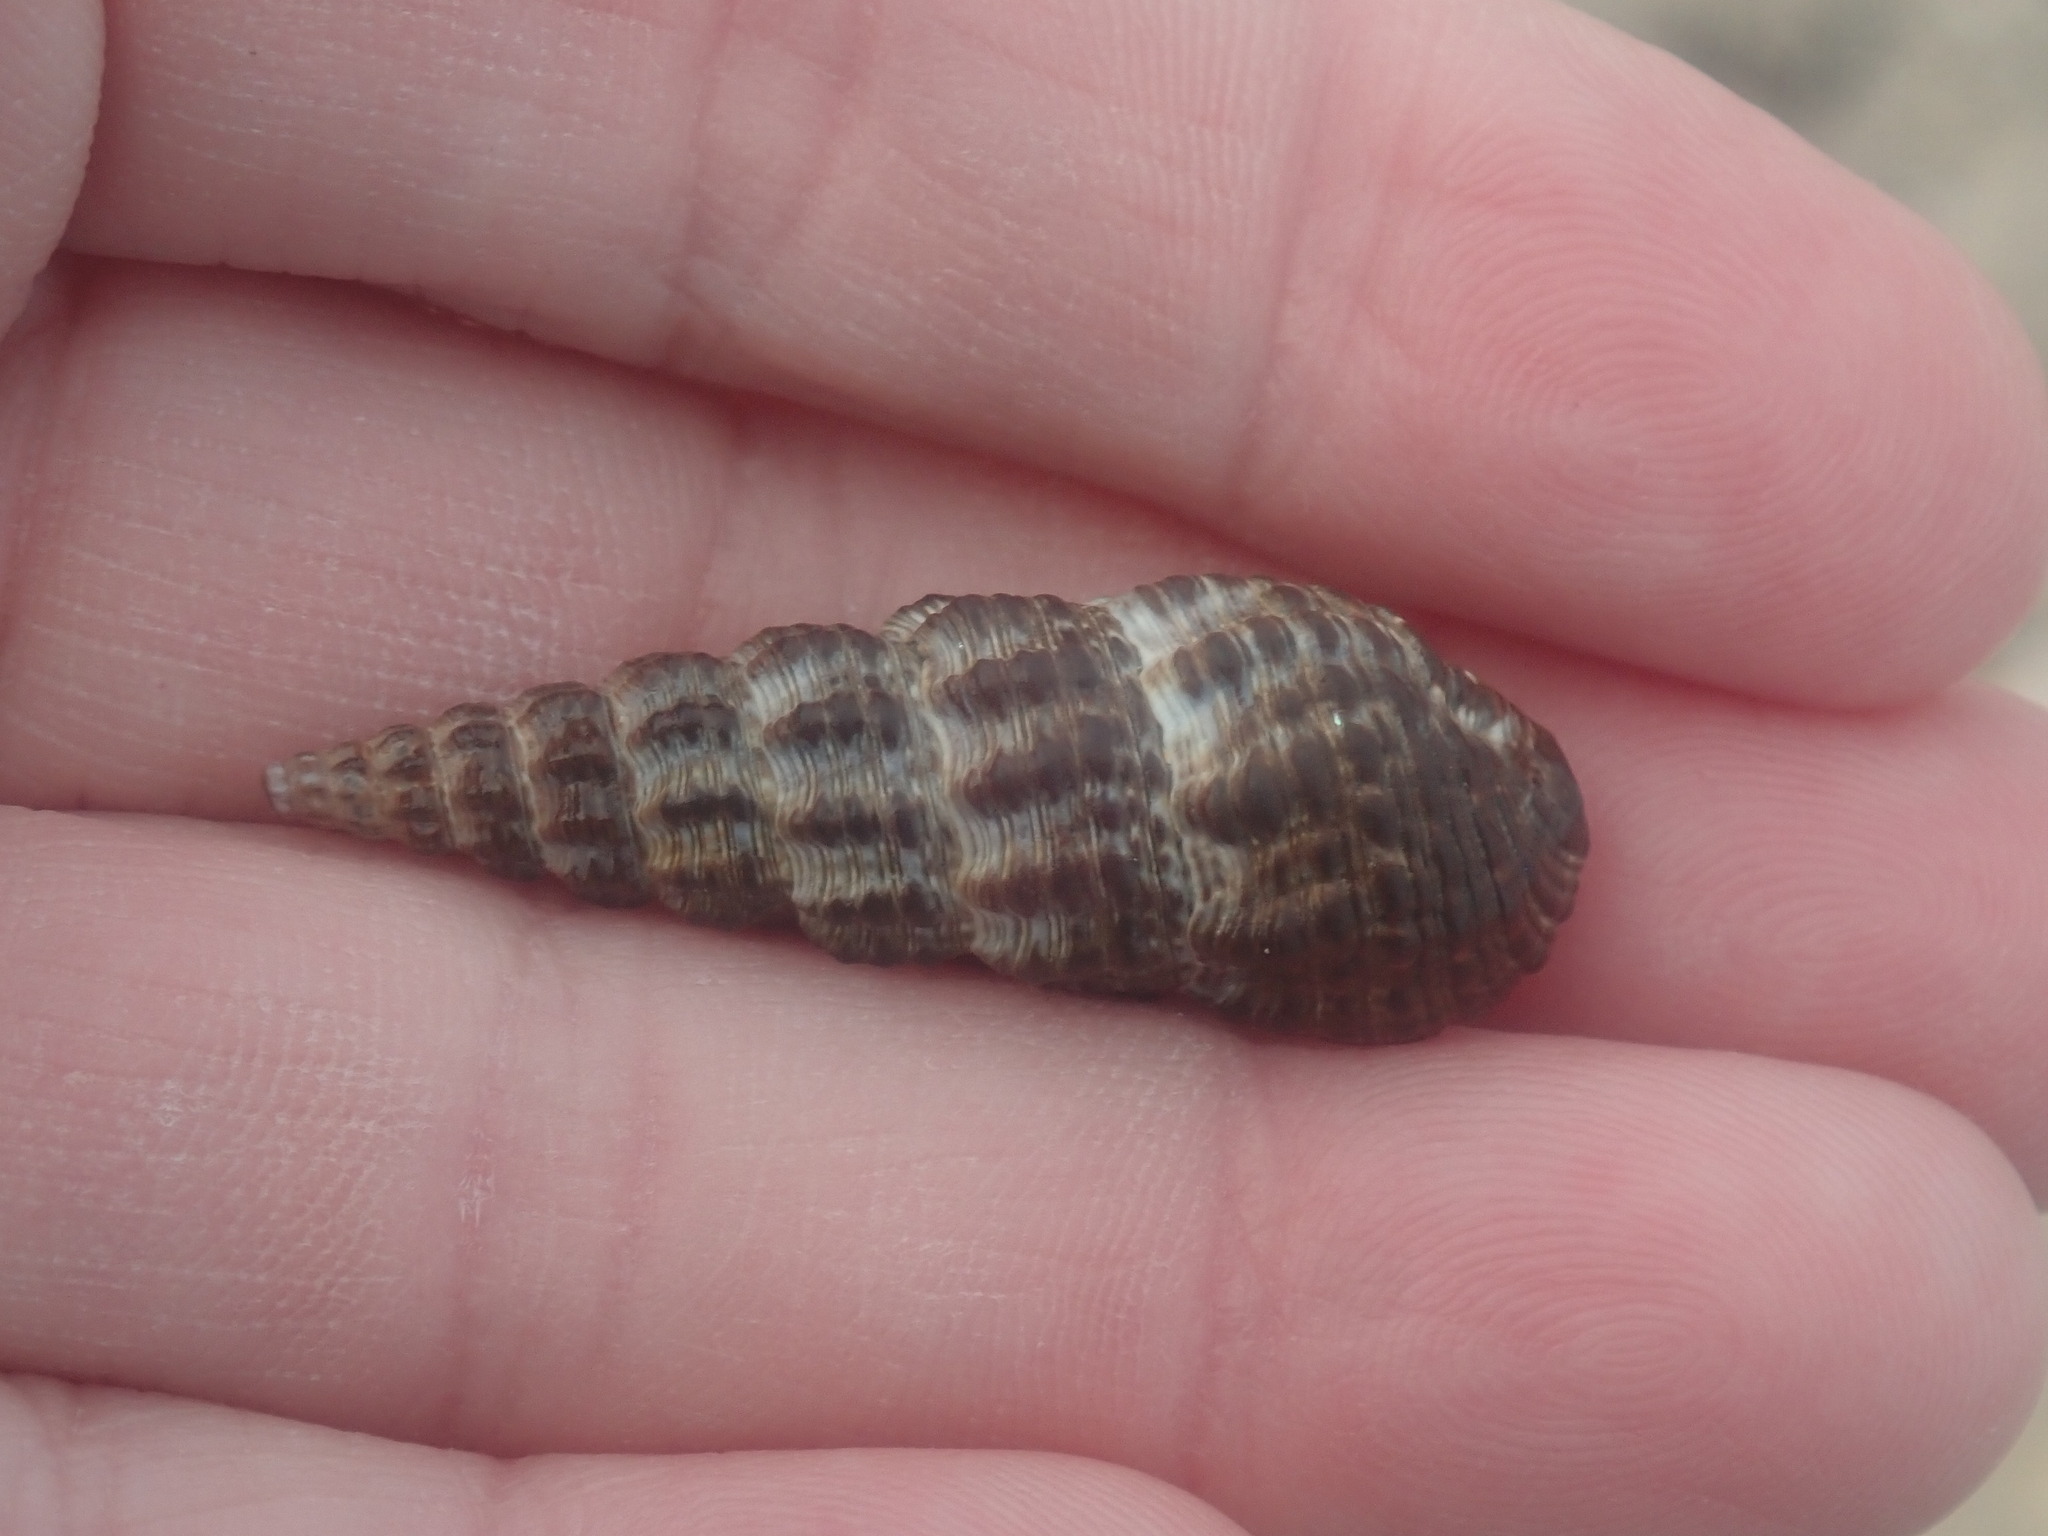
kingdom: Animalia
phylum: Mollusca
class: Gastropoda
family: Batillariidae
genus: Batillaria
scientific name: Batillaria australis
